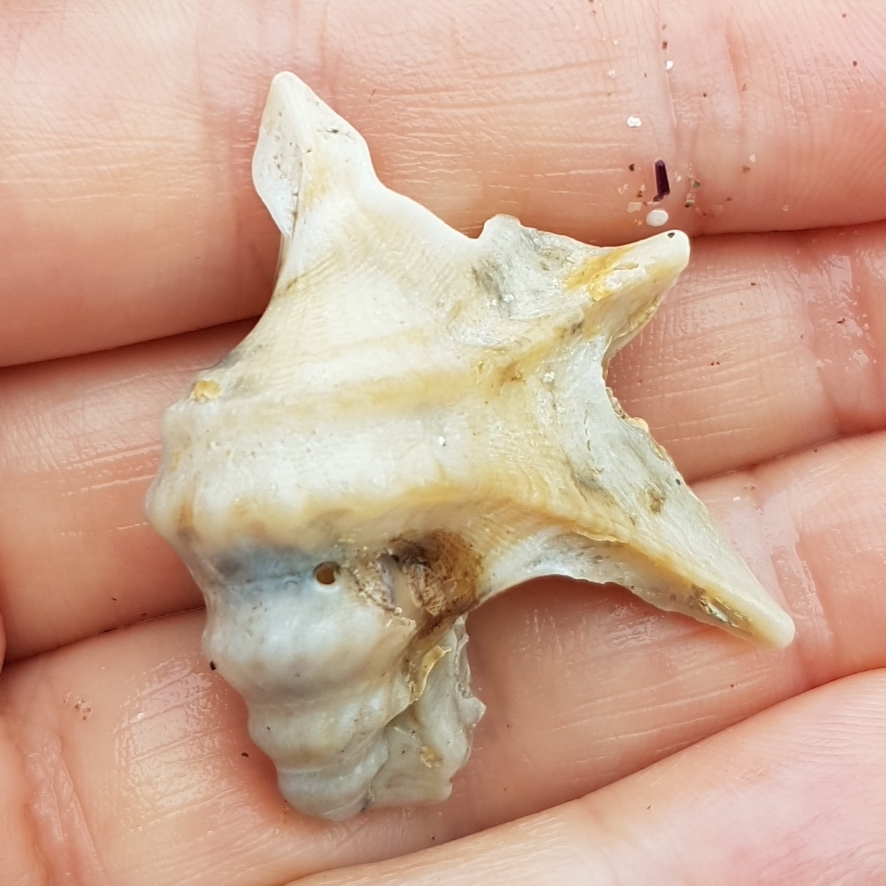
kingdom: Animalia
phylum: Mollusca
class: Gastropoda
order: Littorinimorpha
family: Aporrhaidae
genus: Aporrhais
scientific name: Aporrhais pespelecani
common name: Common pelican’s foot
